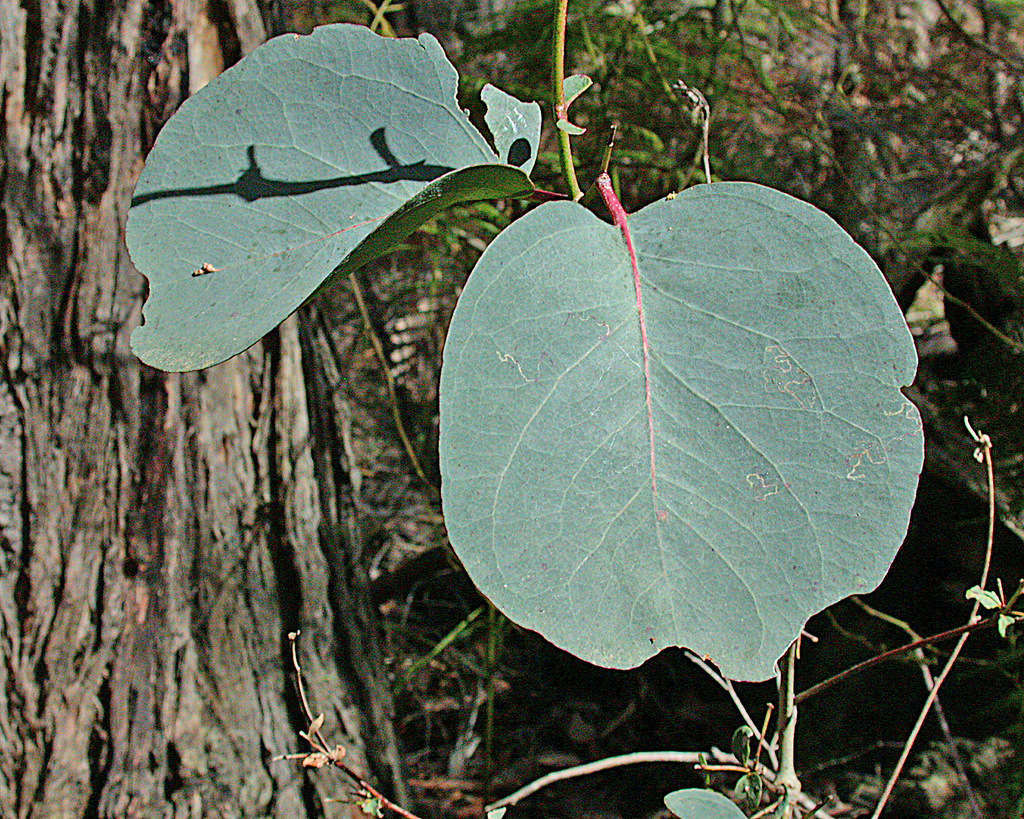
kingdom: Plantae
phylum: Tracheophyta
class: Magnoliopsida
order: Myrtales
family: Myrtaceae
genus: Eucalyptus
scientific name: Eucalyptus ovata
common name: Black-gum
